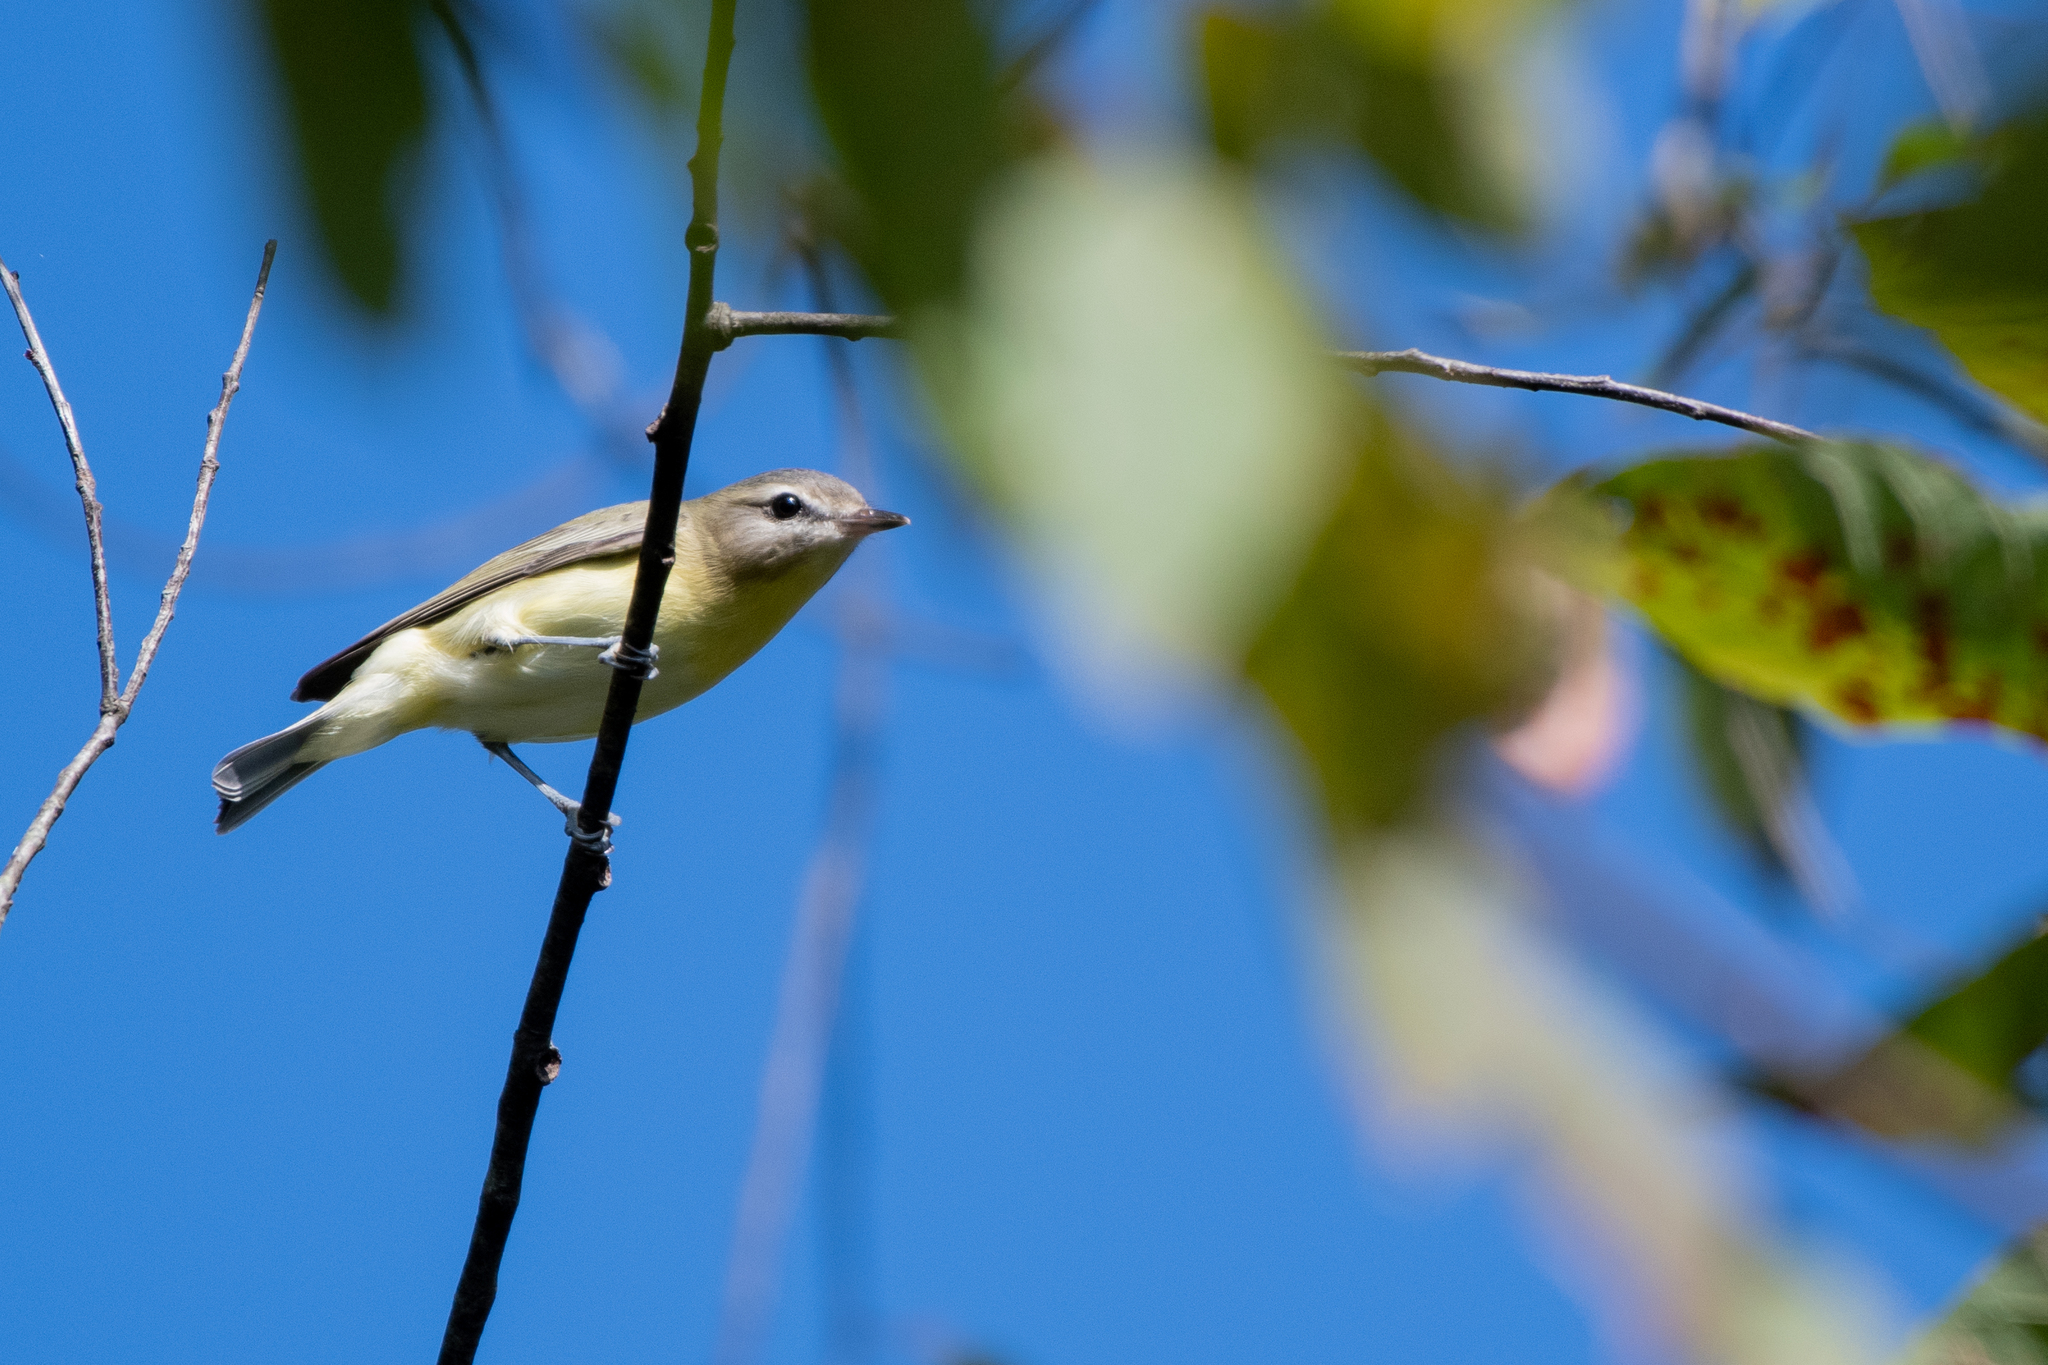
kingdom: Animalia
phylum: Chordata
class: Aves
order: Passeriformes
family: Vireonidae
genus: Vireo
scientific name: Vireo philadelphicus
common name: Philadelphia vireo
